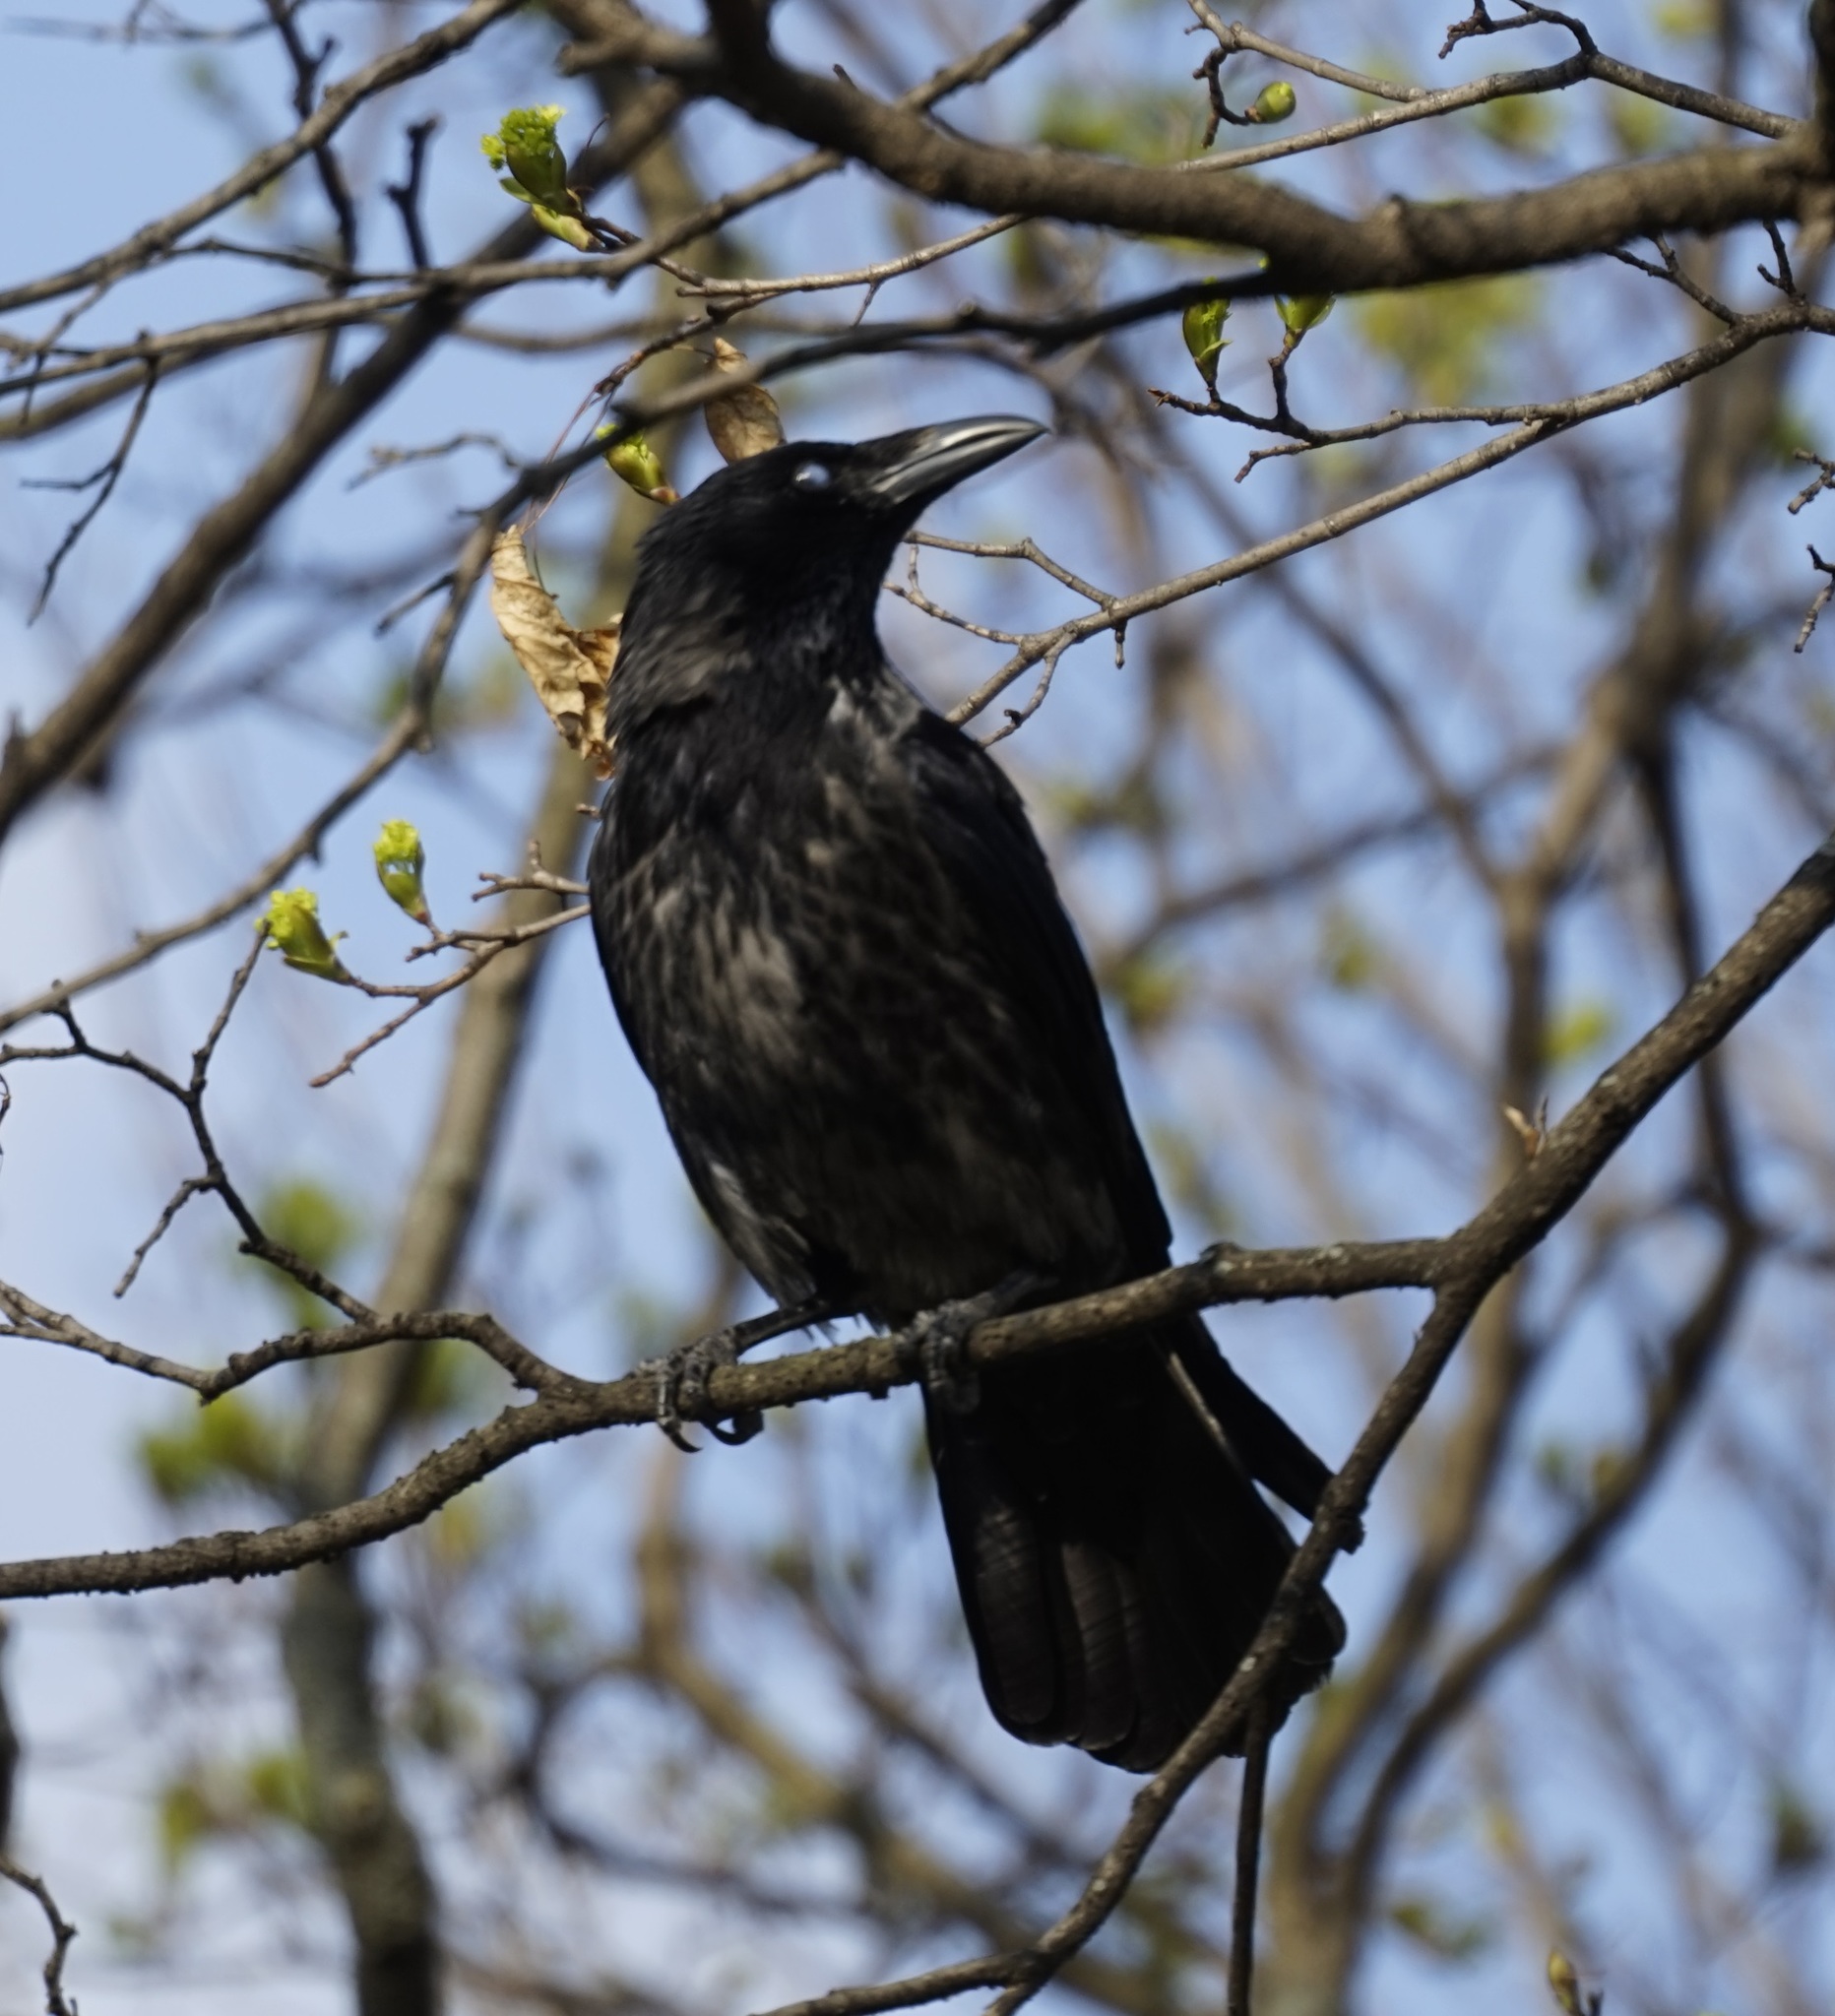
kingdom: Animalia
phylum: Chordata
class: Aves
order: Passeriformes
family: Corvidae
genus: Corvus
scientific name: Corvus
